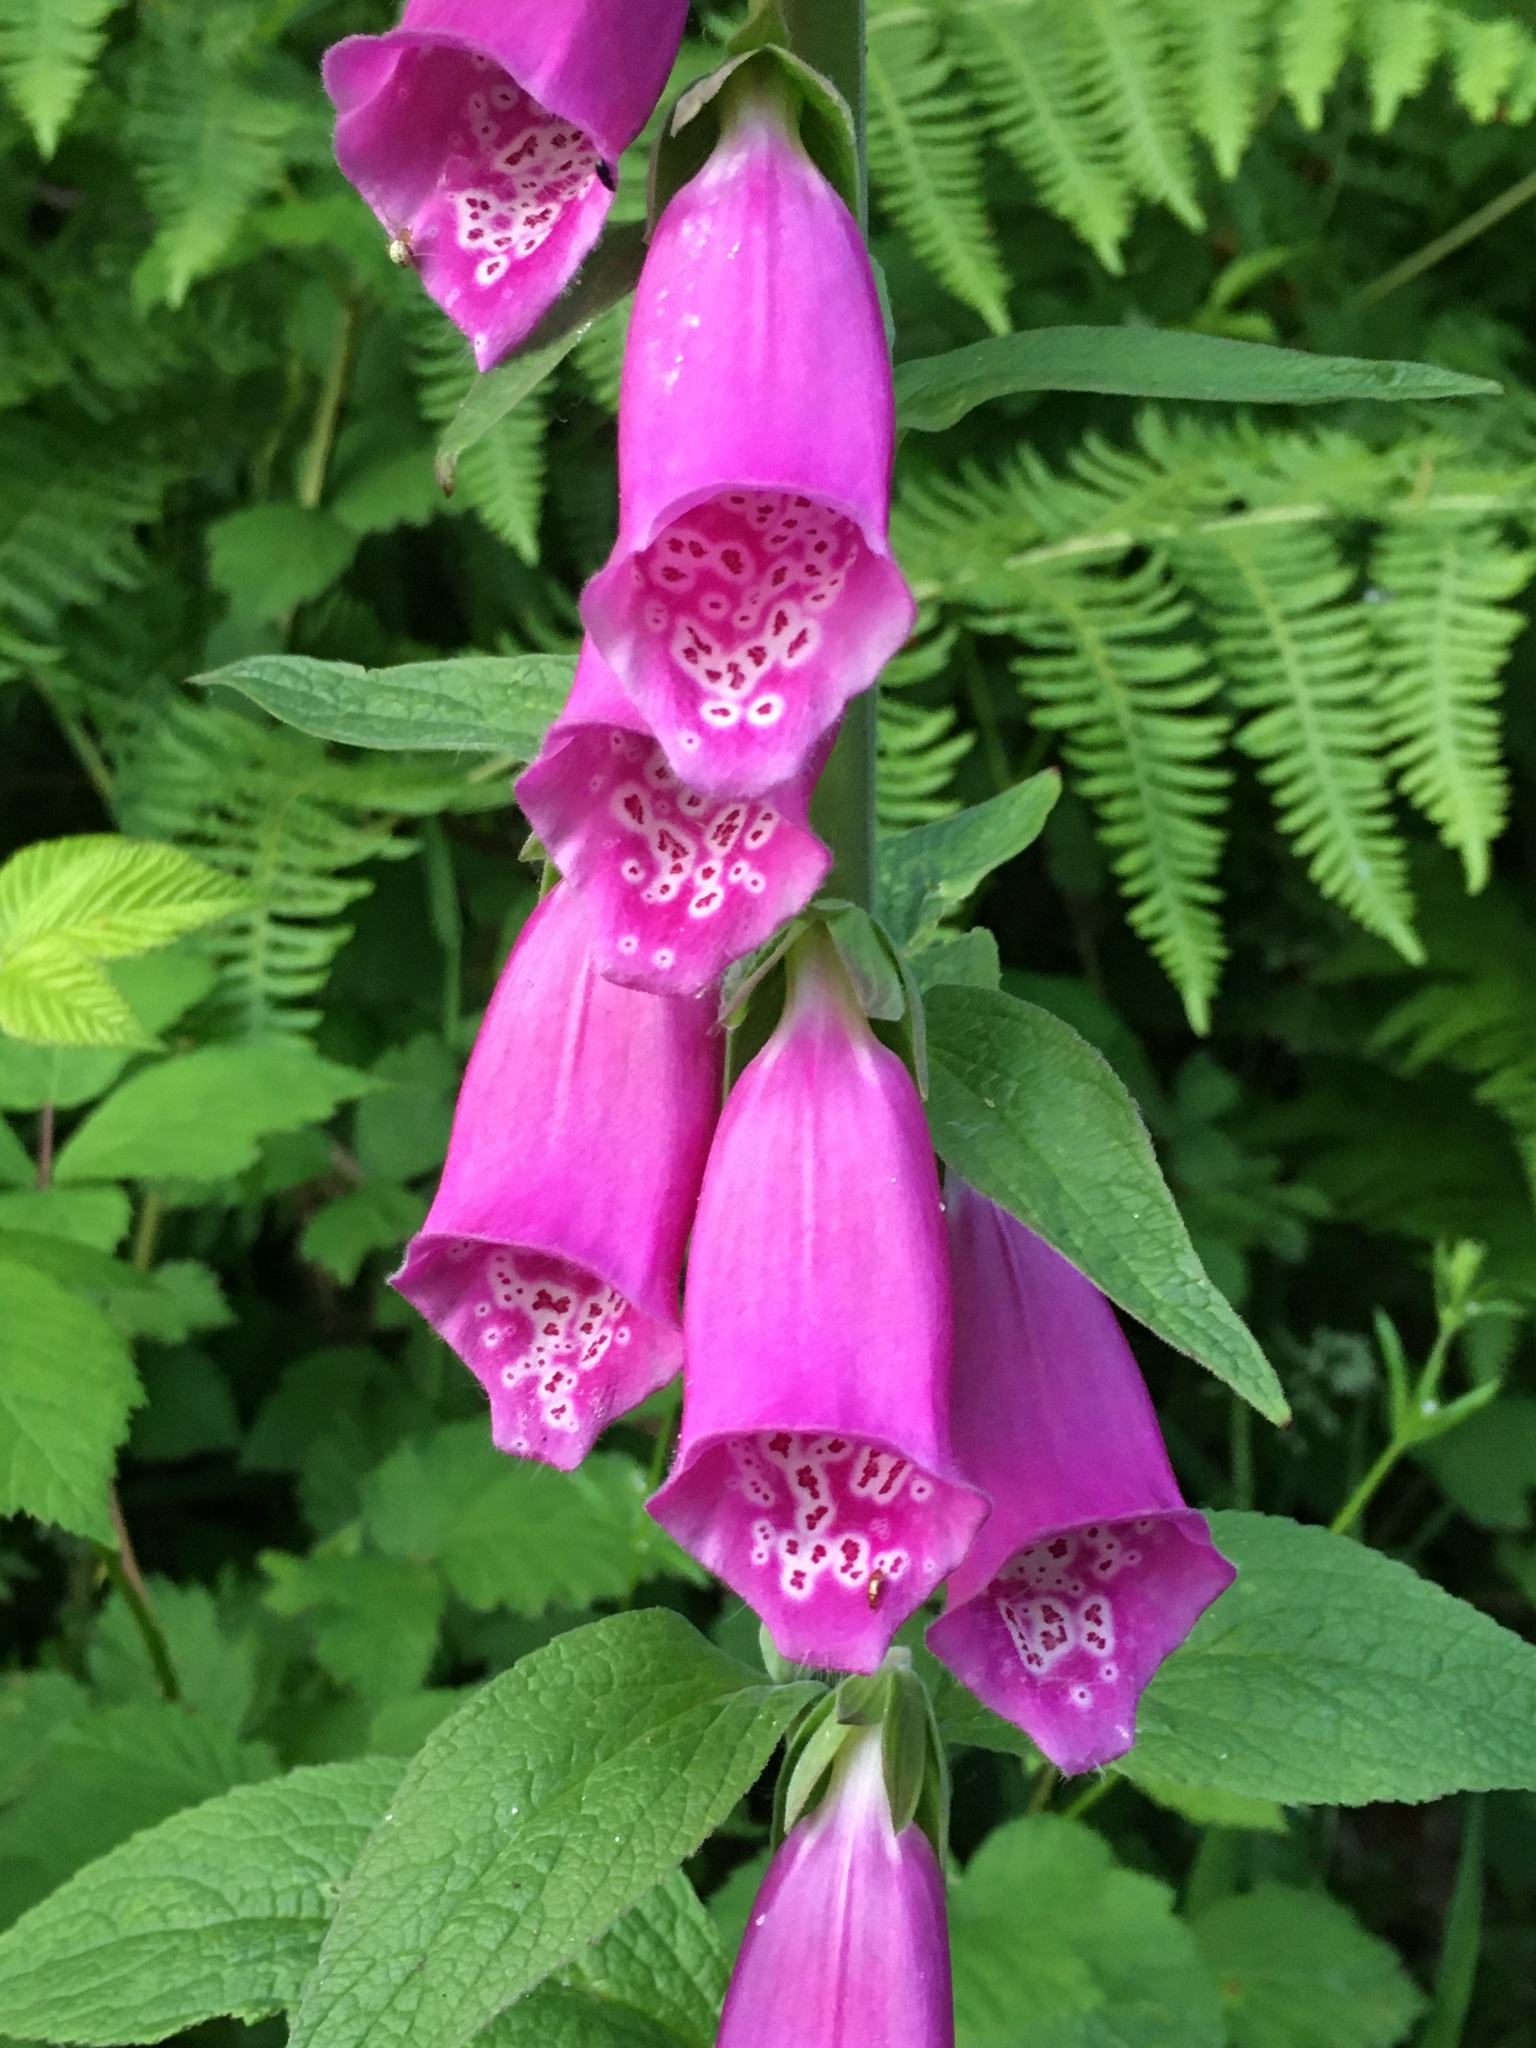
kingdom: Plantae
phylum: Tracheophyta
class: Magnoliopsida
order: Lamiales
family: Plantaginaceae
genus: Digitalis
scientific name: Digitalis purpurea
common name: Foxglove
